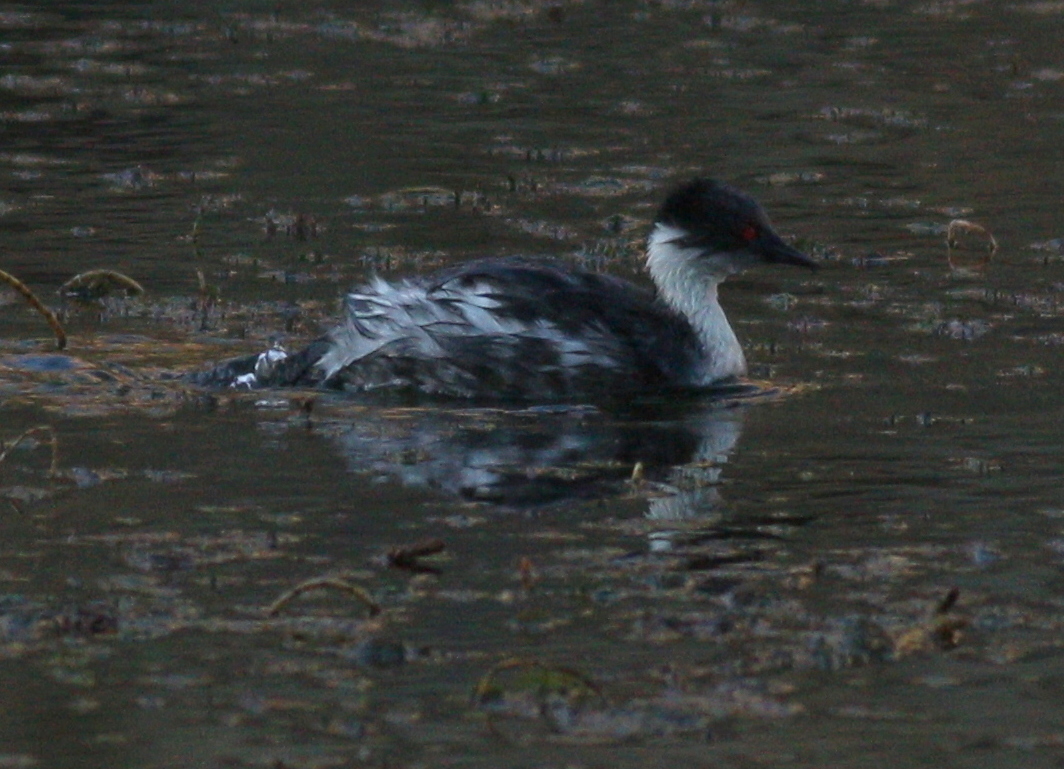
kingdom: Animalia
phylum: Chordata
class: Aves
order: Podicipediformes
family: Podicipedidae
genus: Podiceps
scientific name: Podiceps occipitalis
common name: Silvery grebe
